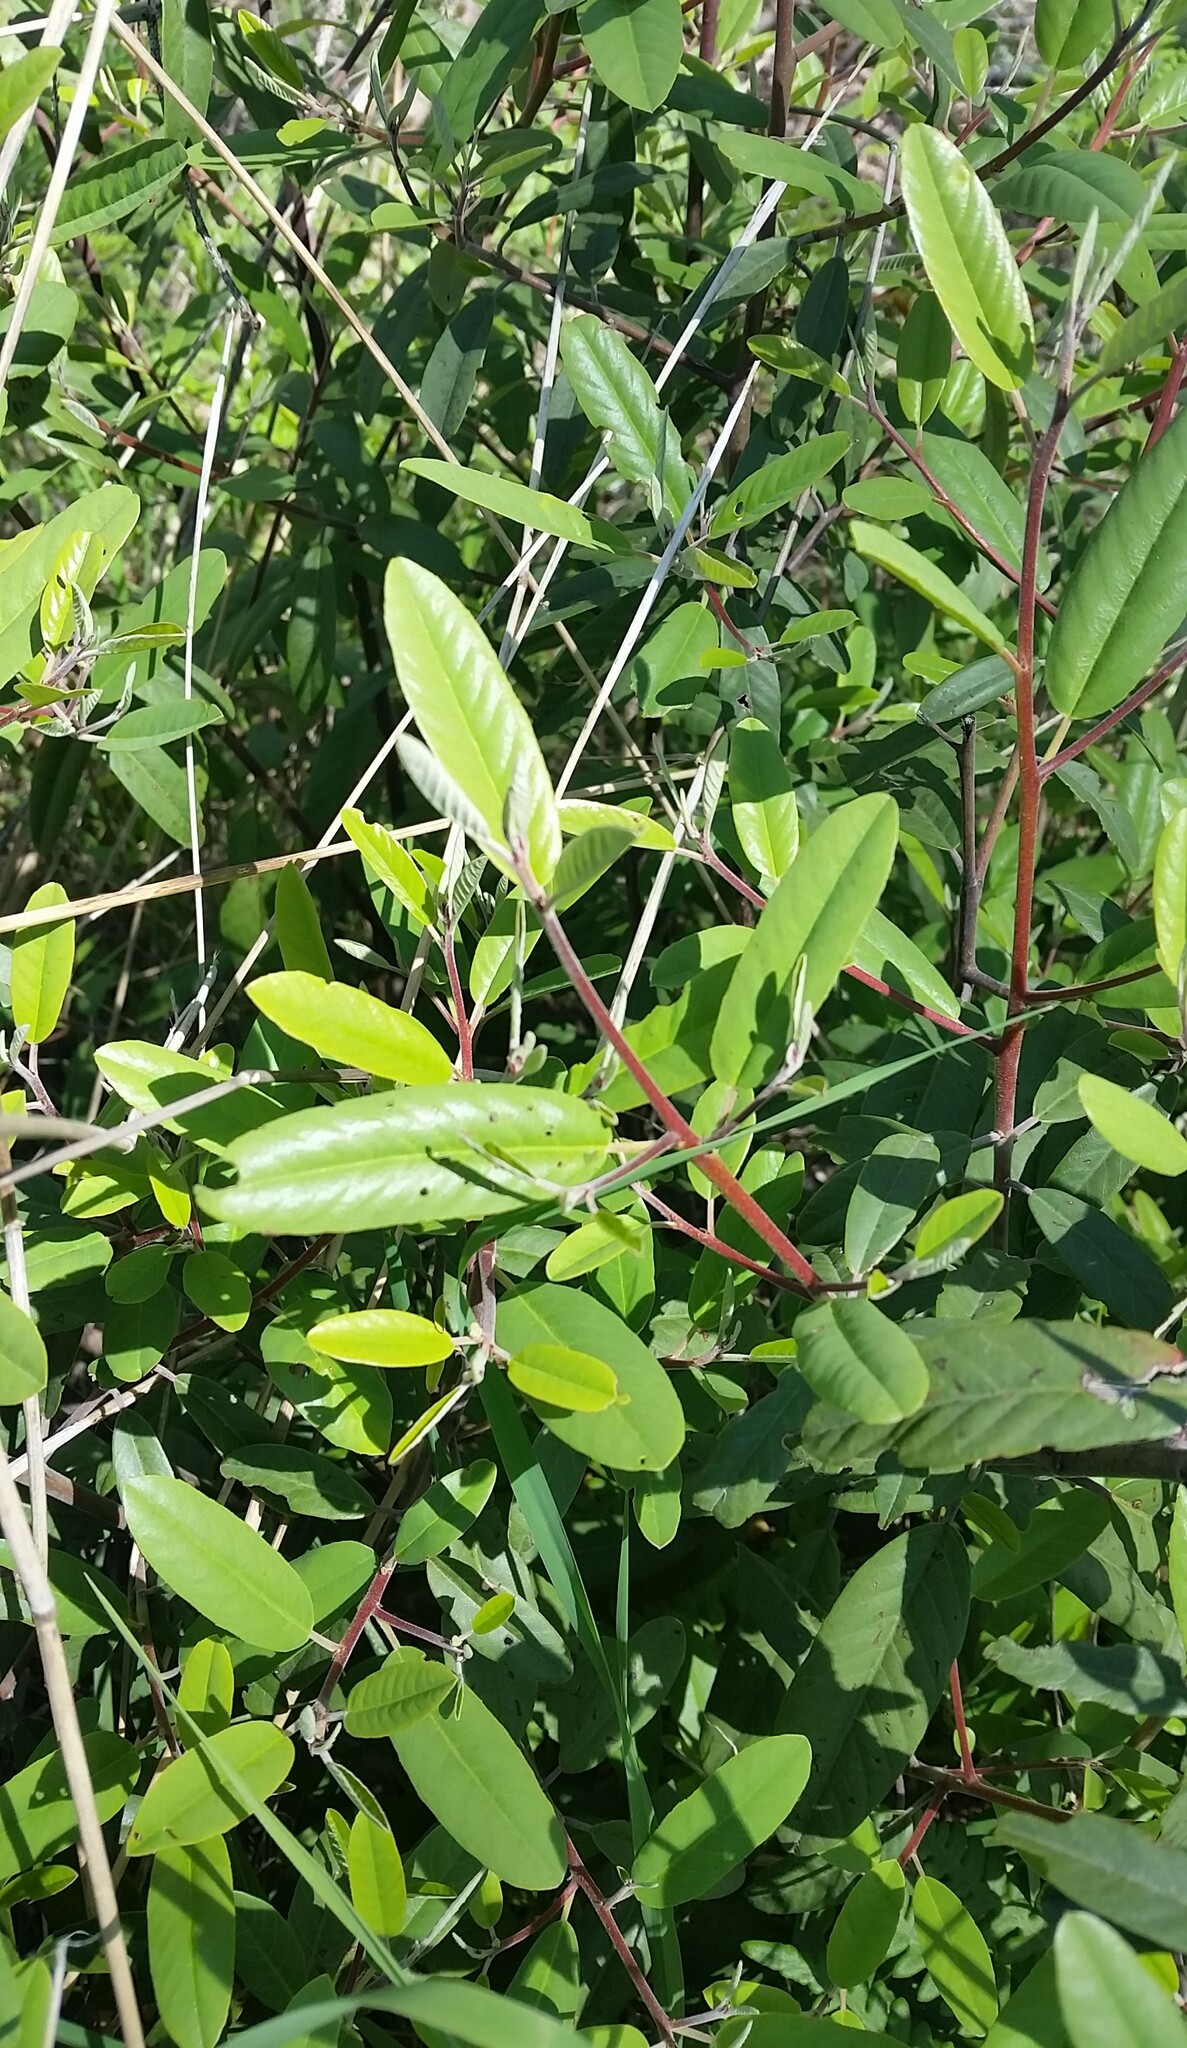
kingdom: Plantae
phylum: Tracheophyta
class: Magnoliopsida
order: Rosales
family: Rhamnaceae
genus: Frangula
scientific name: Frangula californica
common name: California buckthorn
